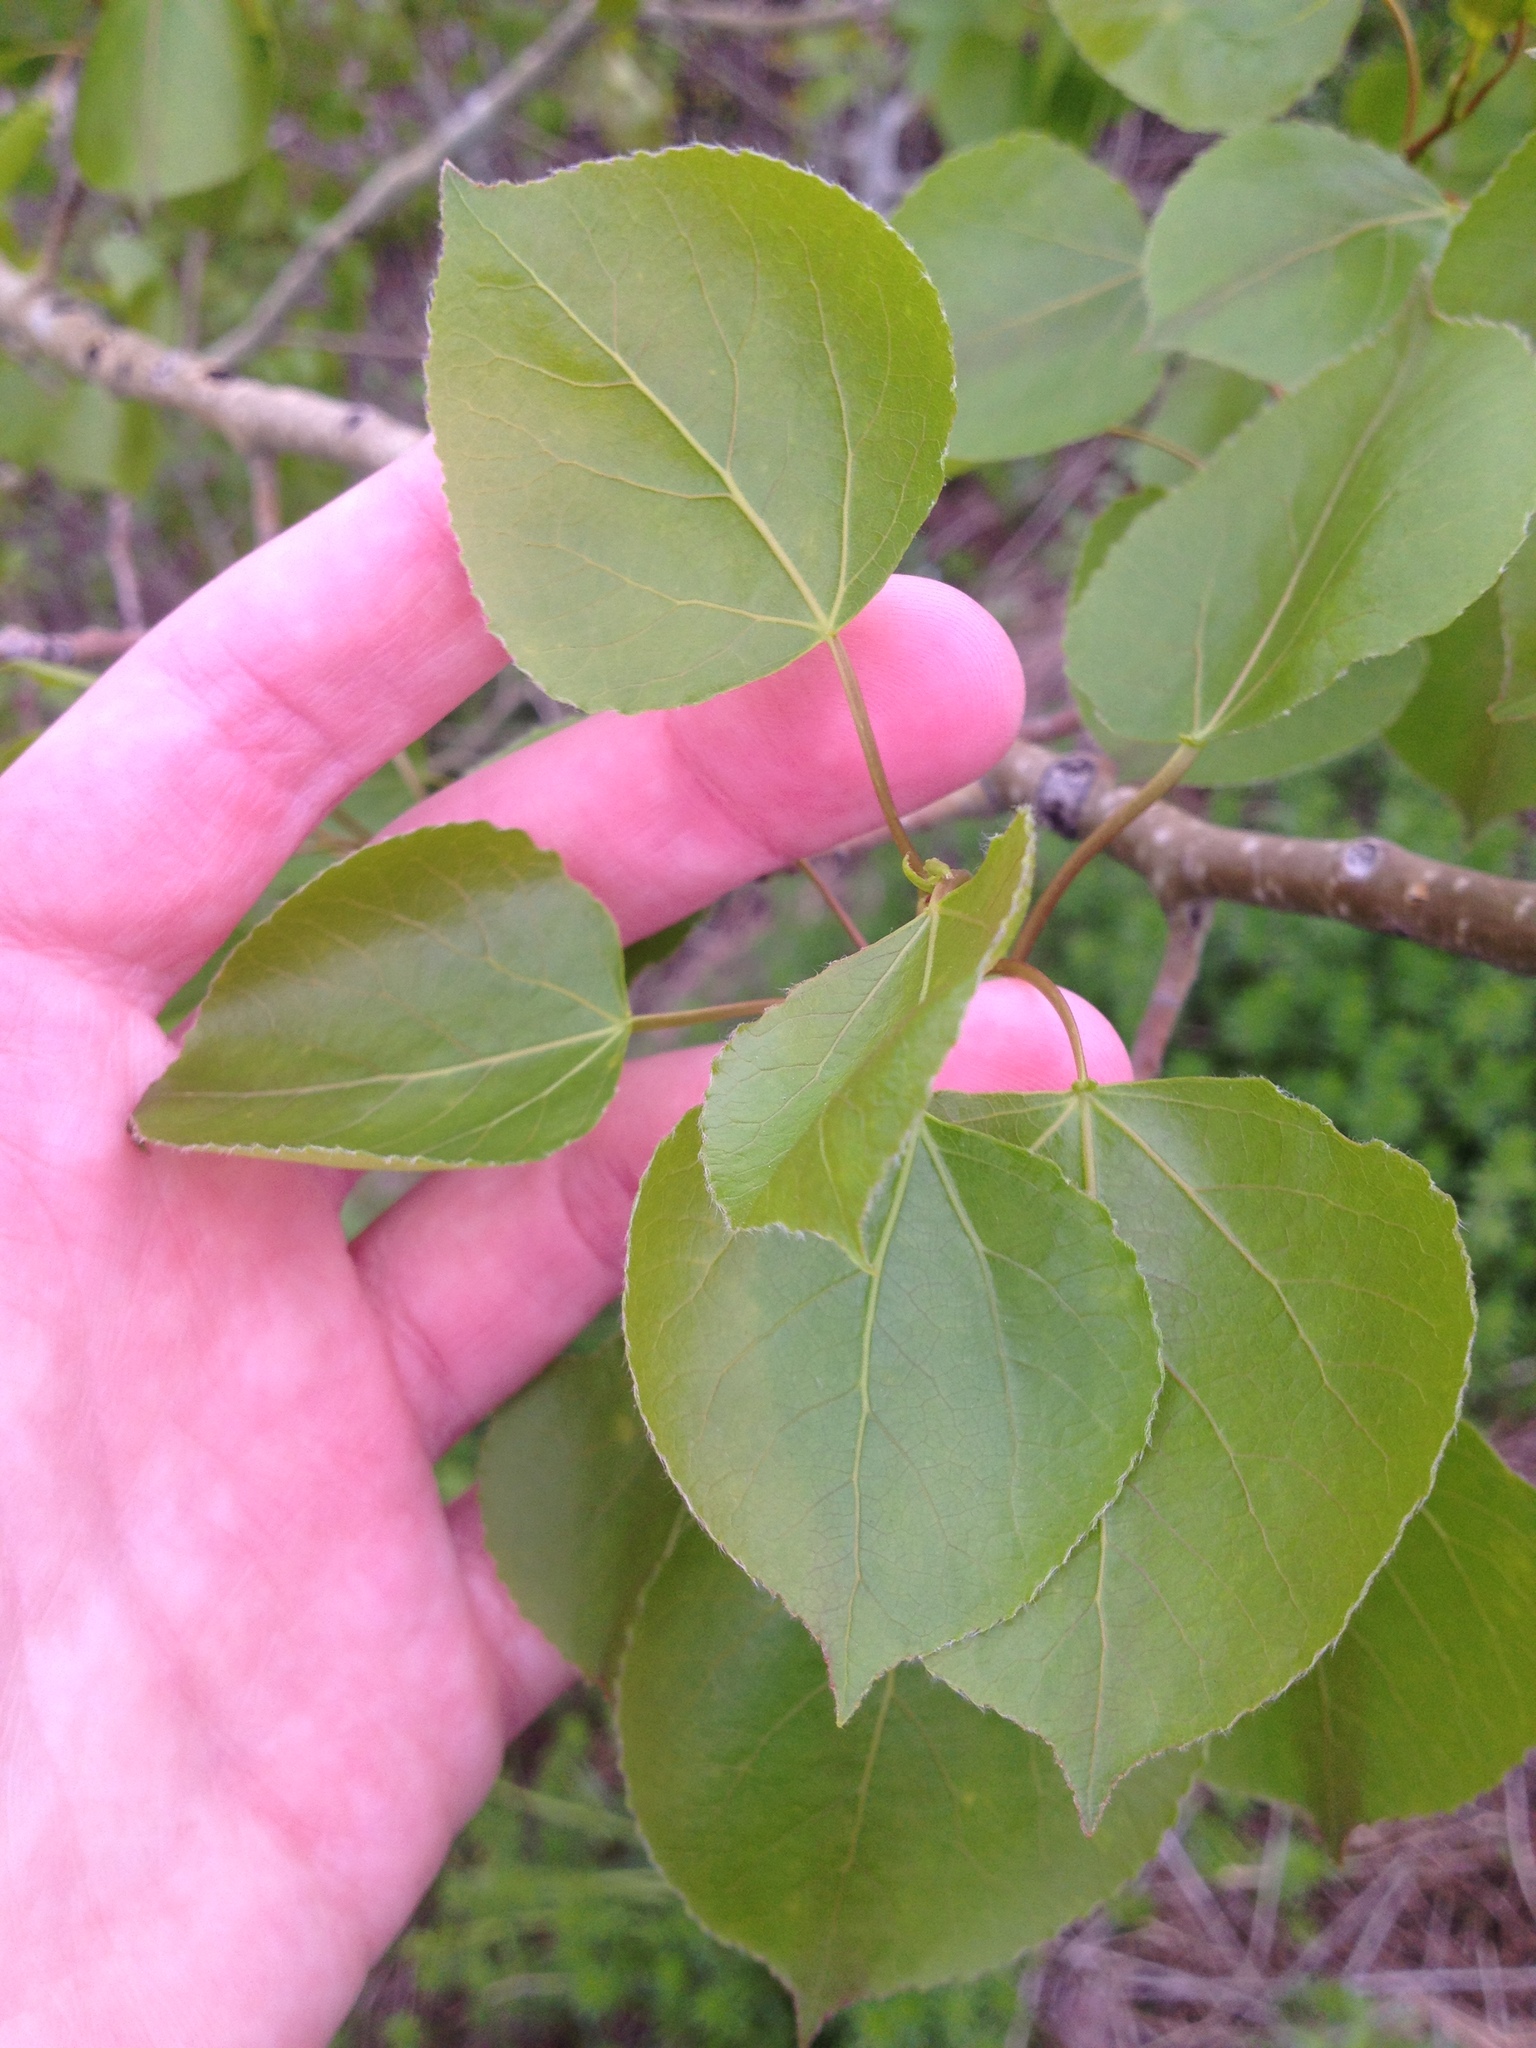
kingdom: Plantae
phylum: Tracheophyta
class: Magnoliopsida
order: Malpighiales
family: Salicaceae
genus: Populus
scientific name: Populus tremuloides
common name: Quaking aspen
